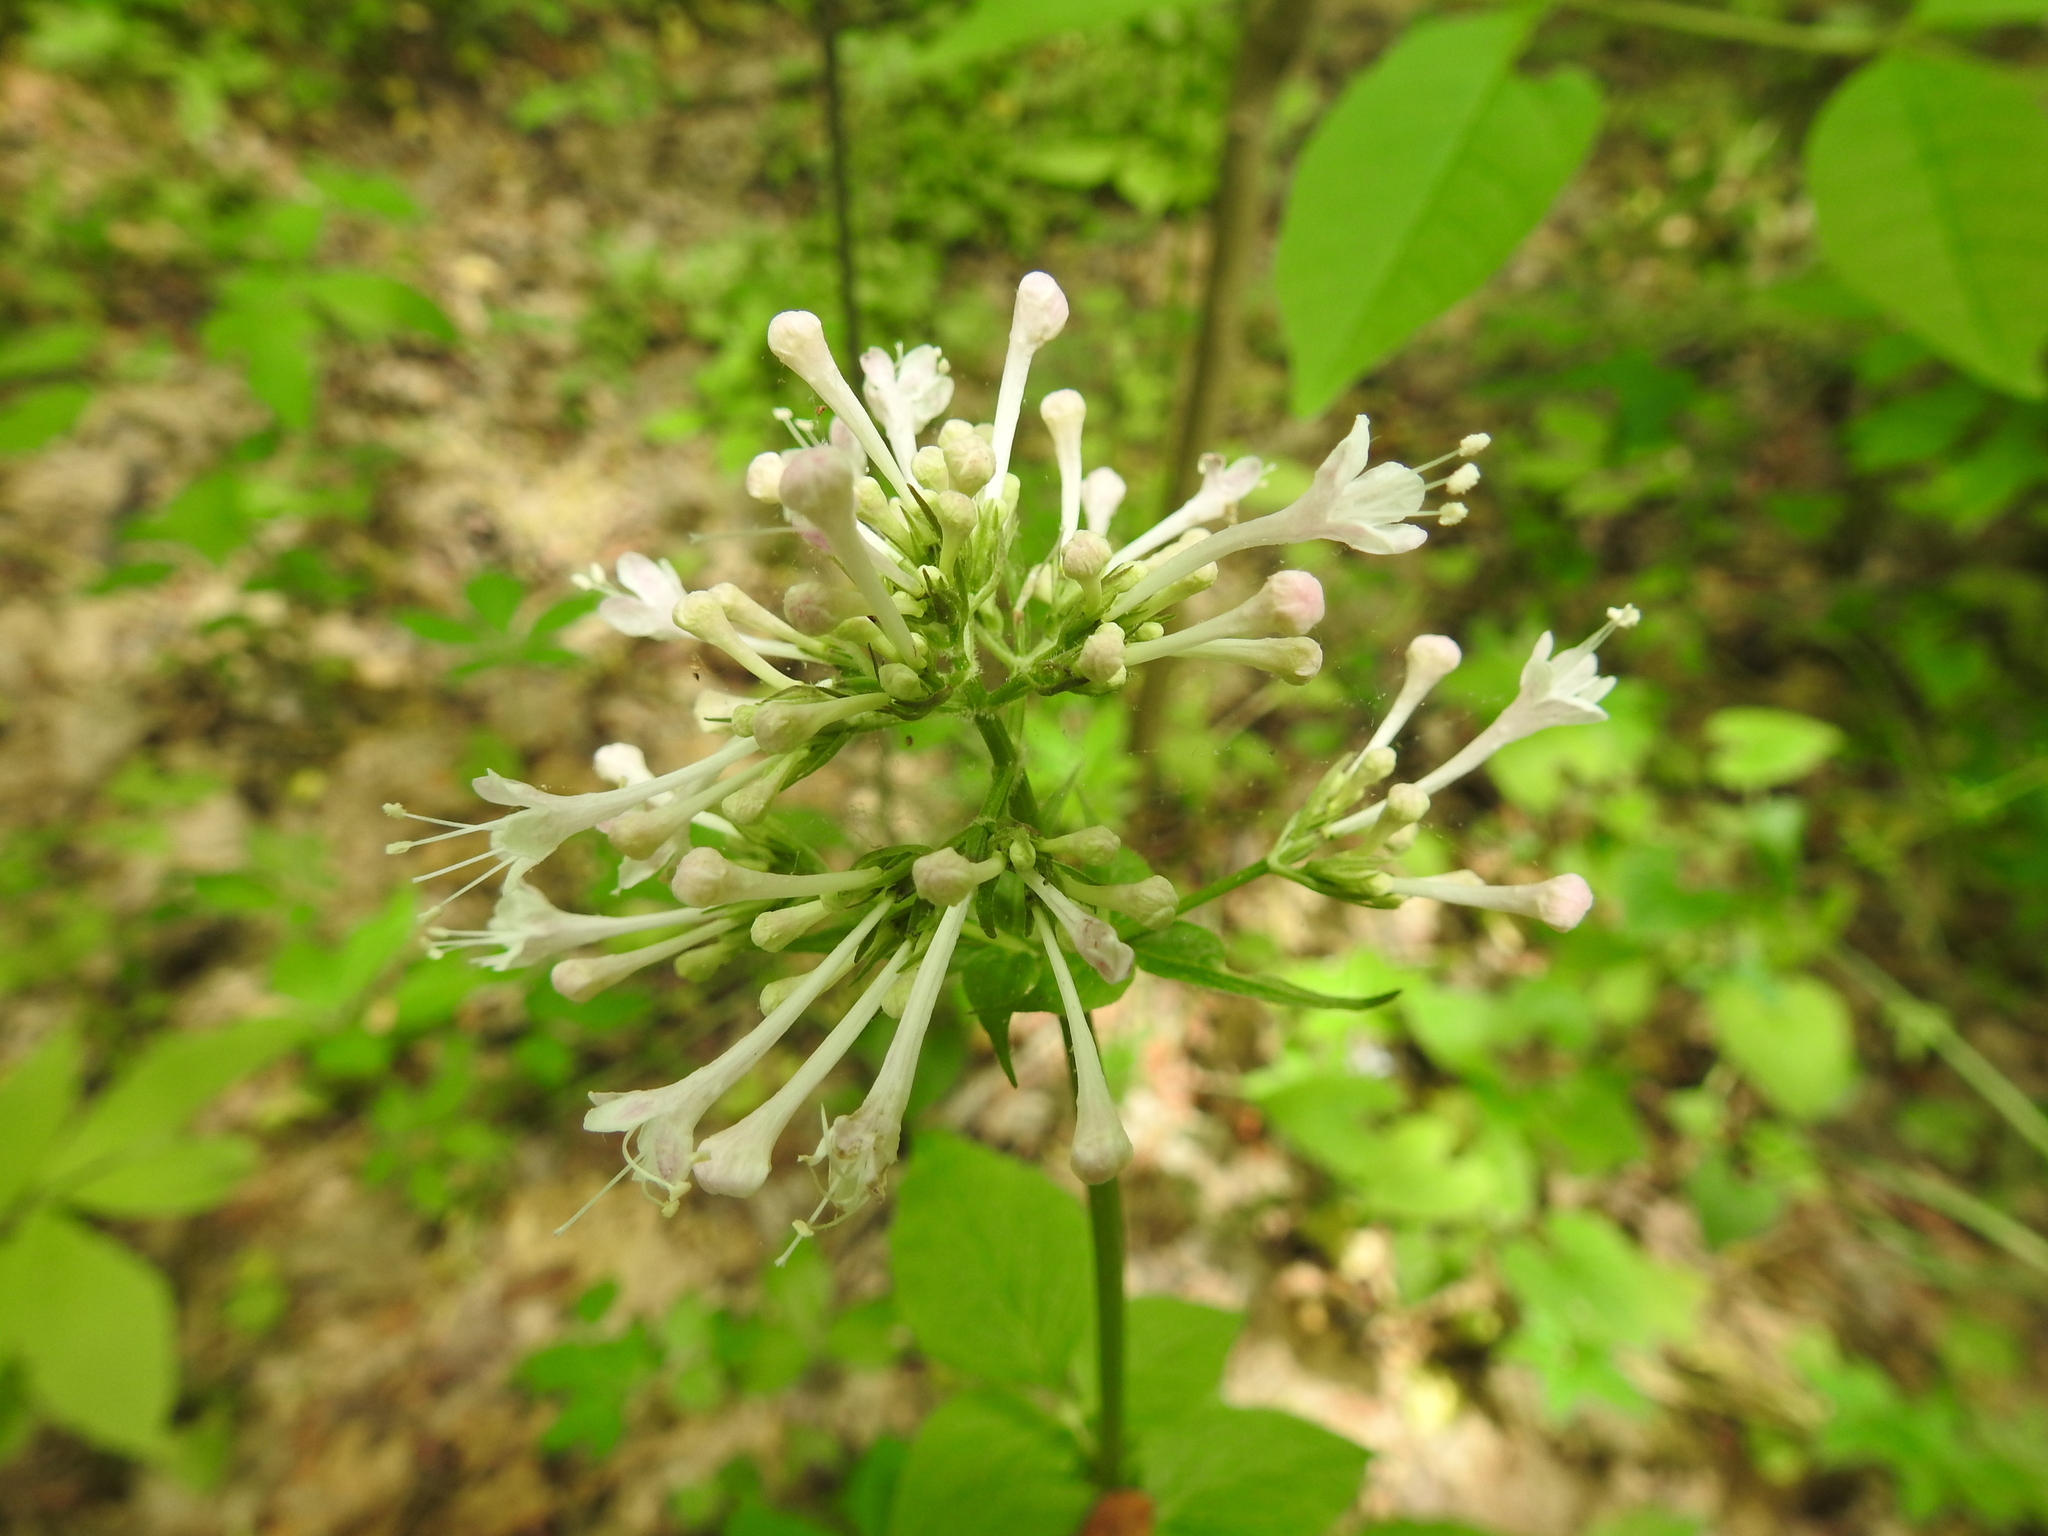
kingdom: Plantae
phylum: Tracheophyta
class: Magnoliopsida
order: Dipsacales
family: Caprifoliaceae
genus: Valeriana
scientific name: Valeriana pauciflora
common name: Long-tube valeriana
